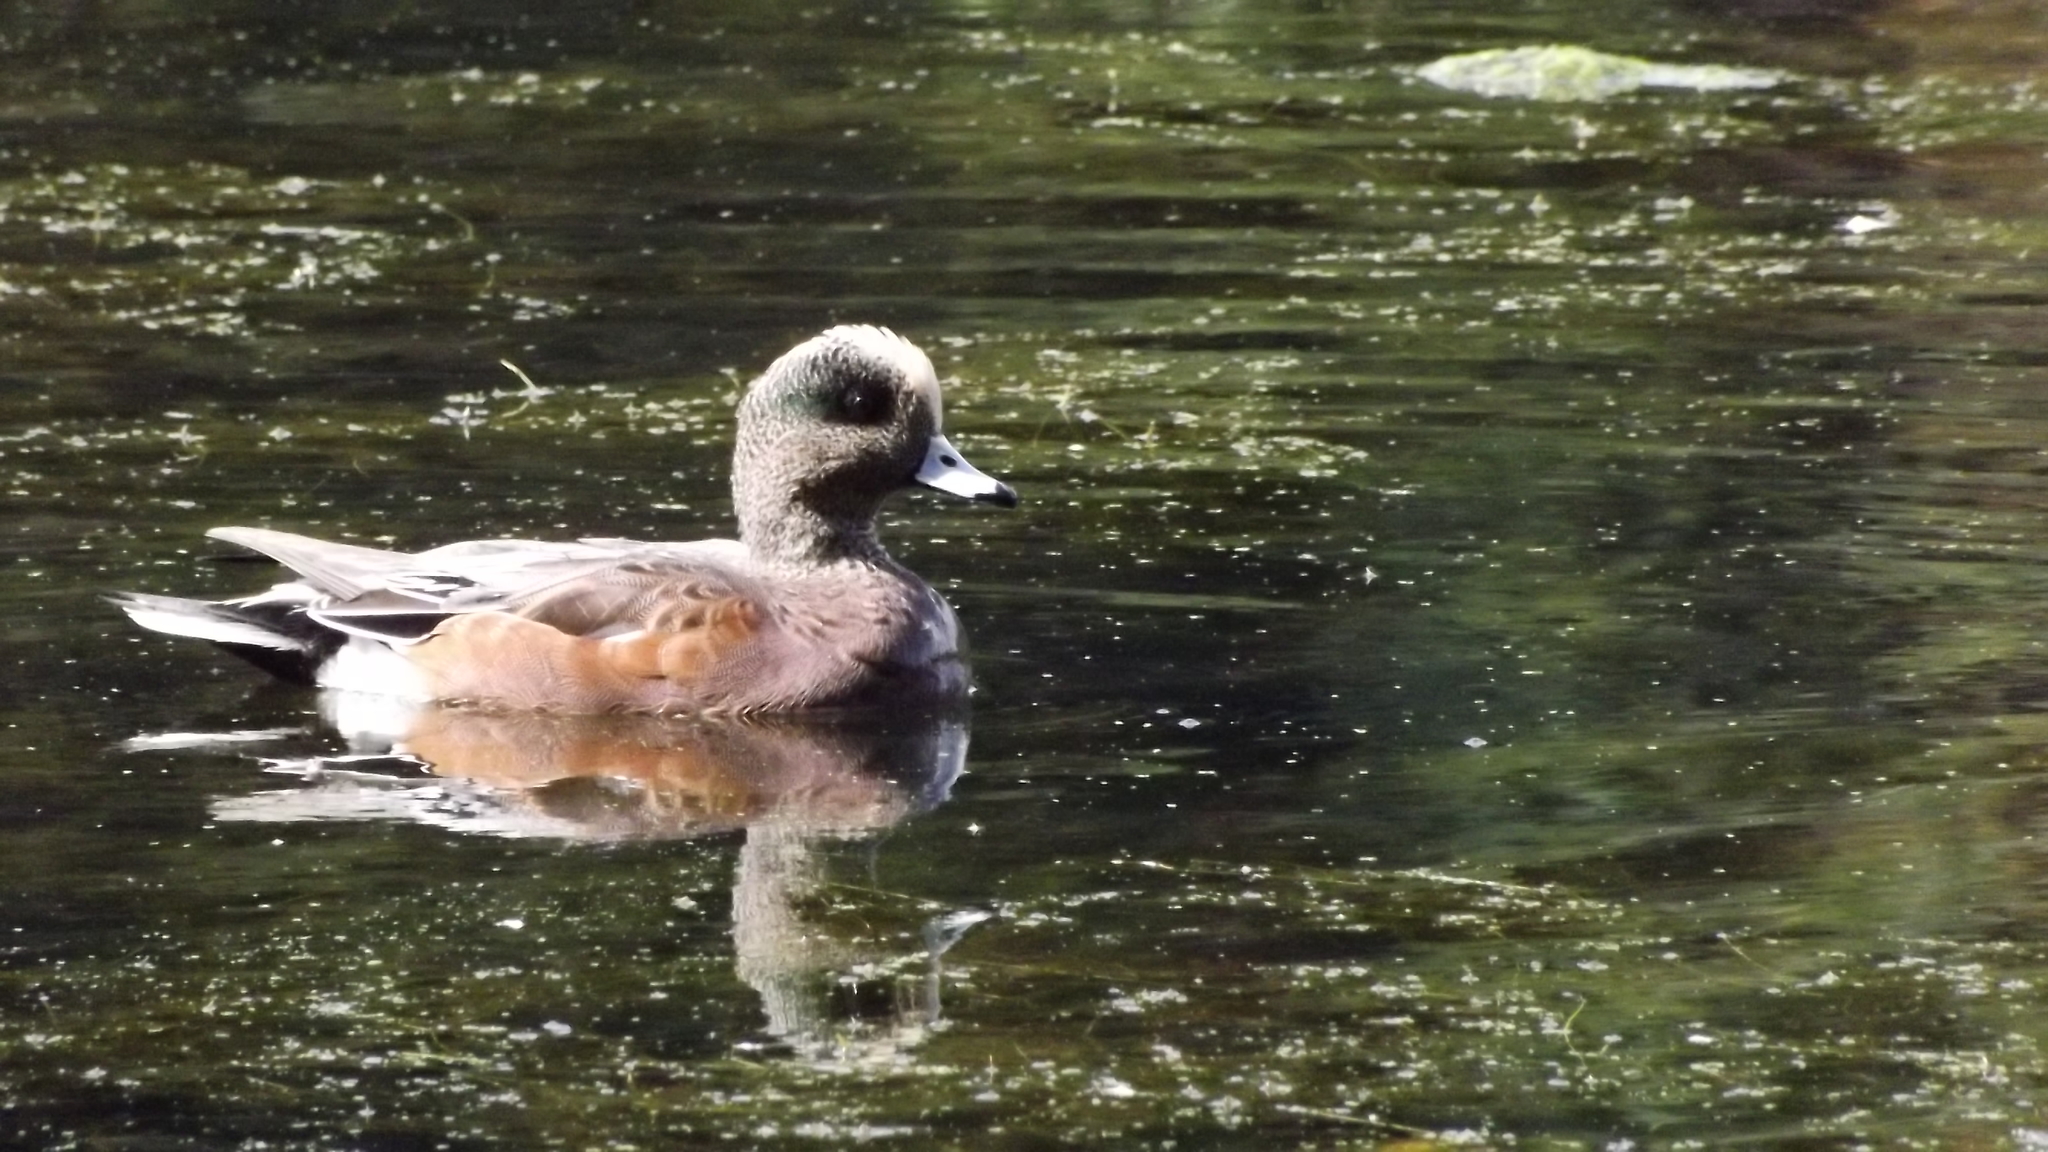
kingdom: Animalia
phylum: Chordata
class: Aves
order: Anseriformes
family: Anatidae
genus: Mareca
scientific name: Mareca americana
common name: American wigeon
